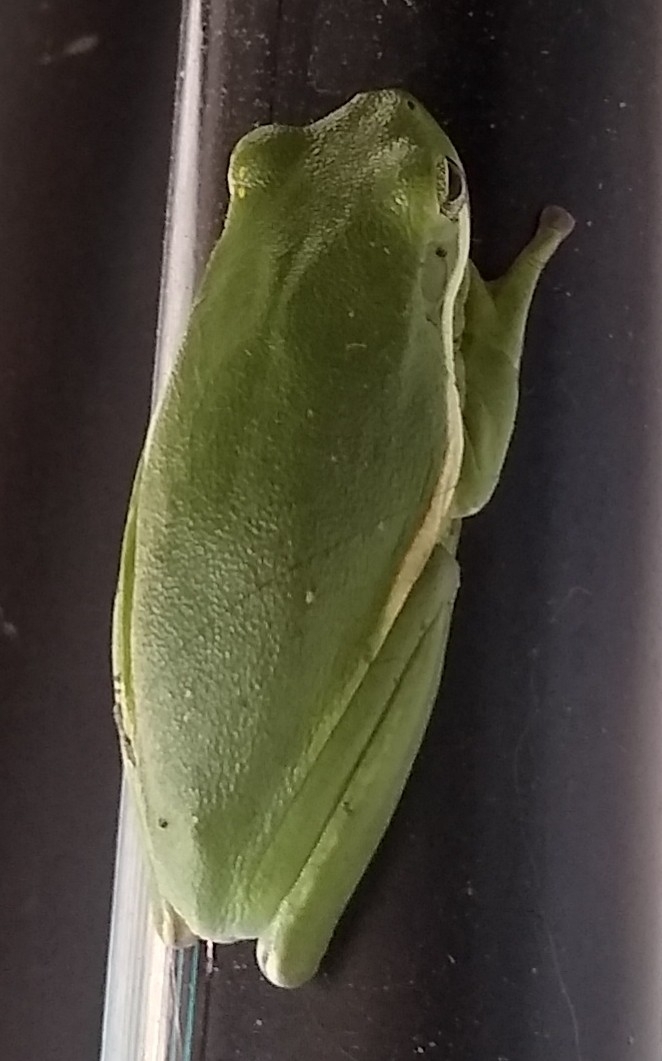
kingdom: Animalia
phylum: Chordata
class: Amphibia
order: Anura
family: Hylidae
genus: Dryophytes
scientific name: Dryophytes cinereus
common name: Green treefrog
